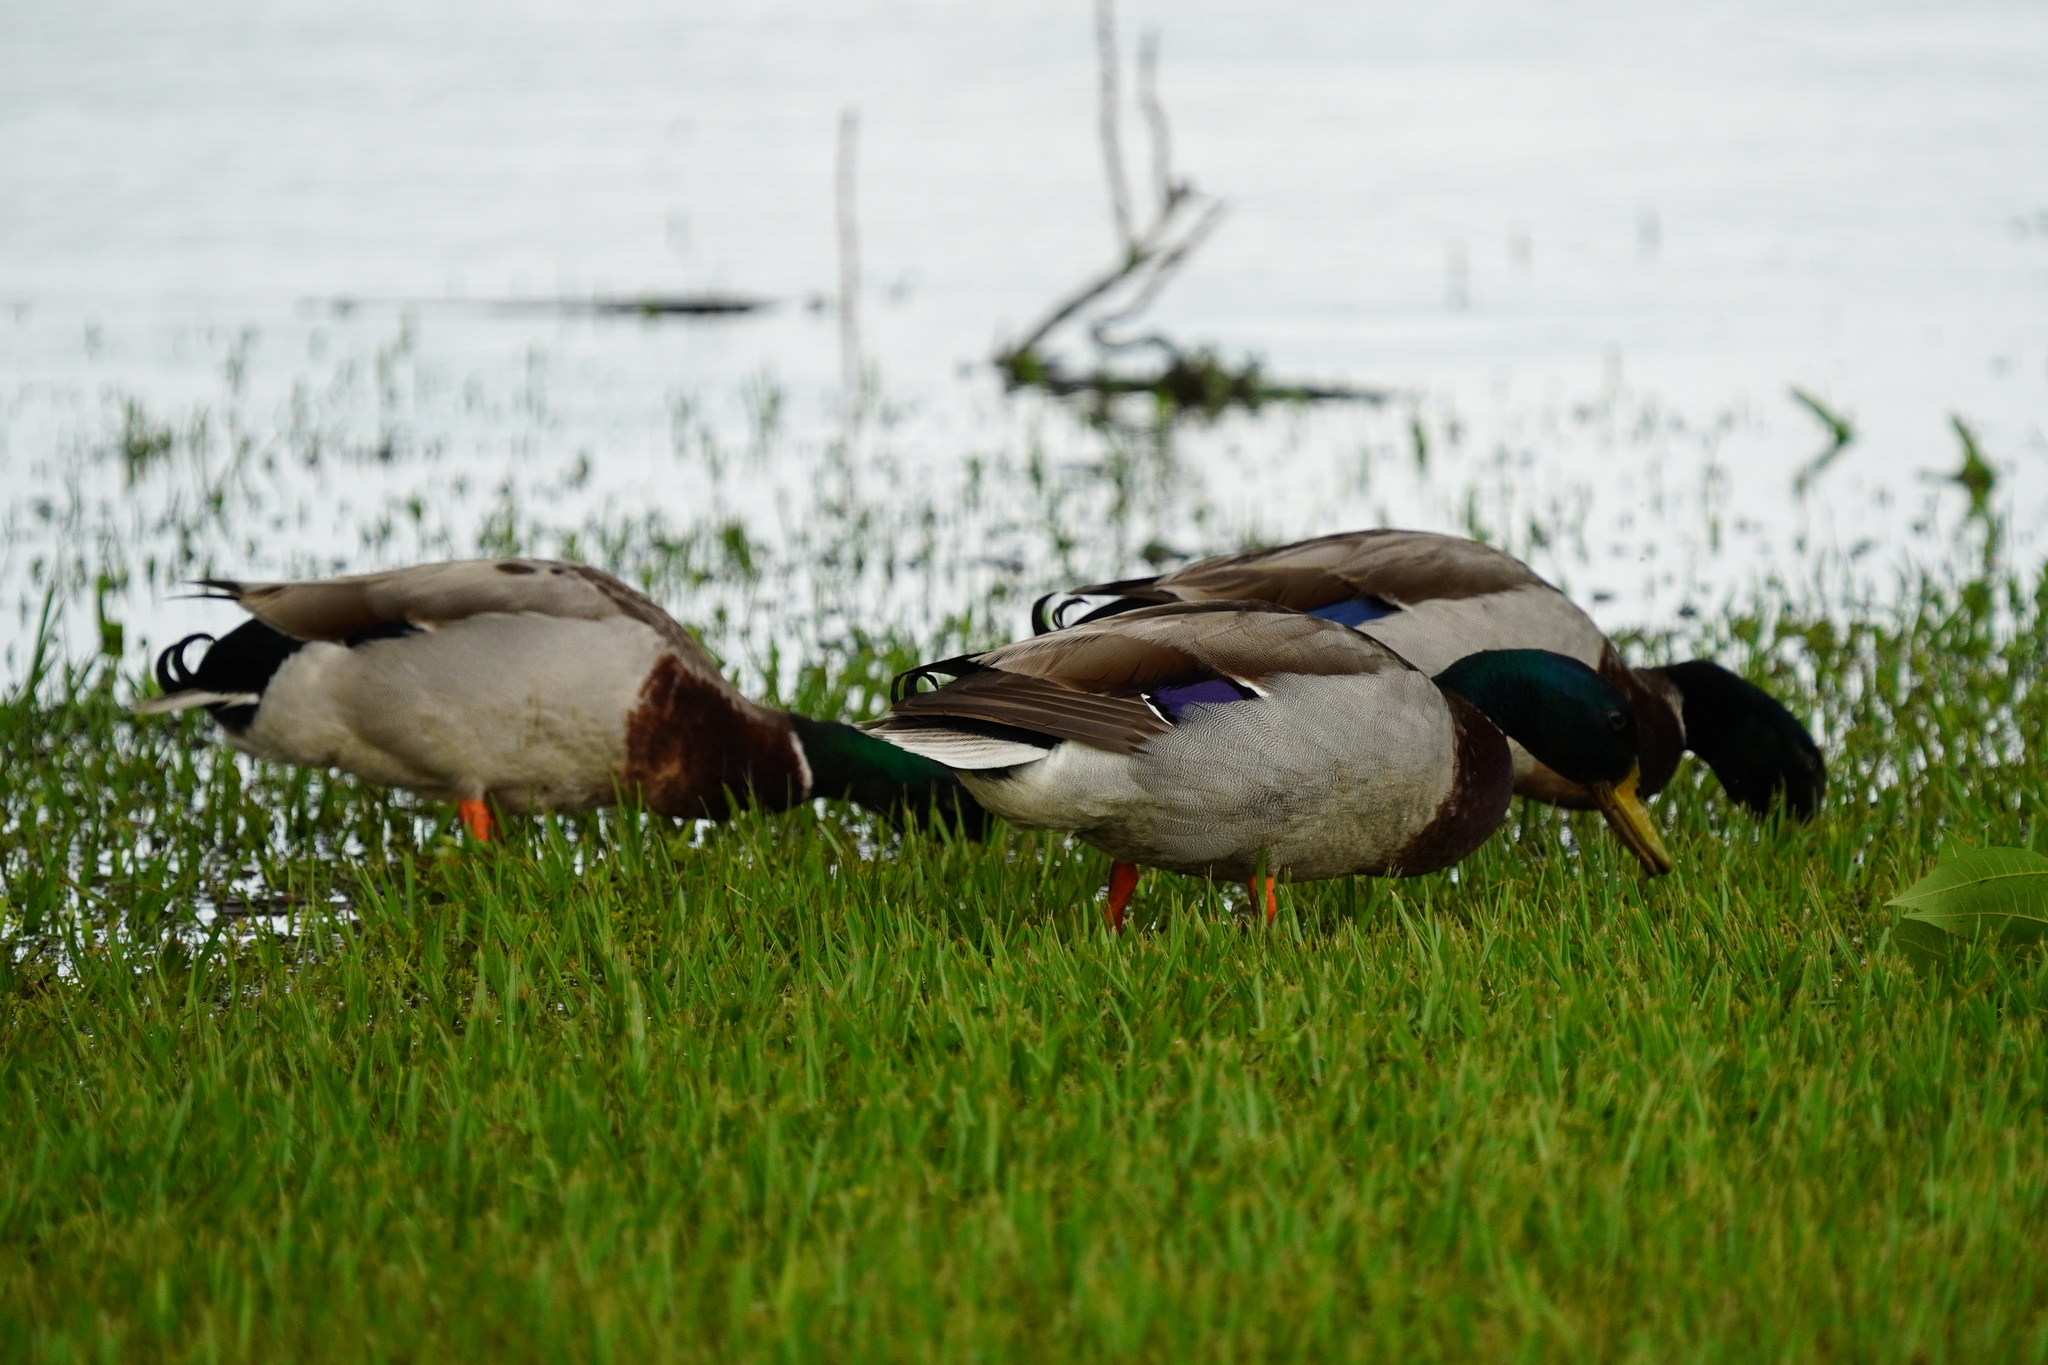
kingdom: Animalia
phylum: Chordata
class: Aves
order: Anseriformes
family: Anatidae
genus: Anas
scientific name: Anas platyrhynchos
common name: Mallard
